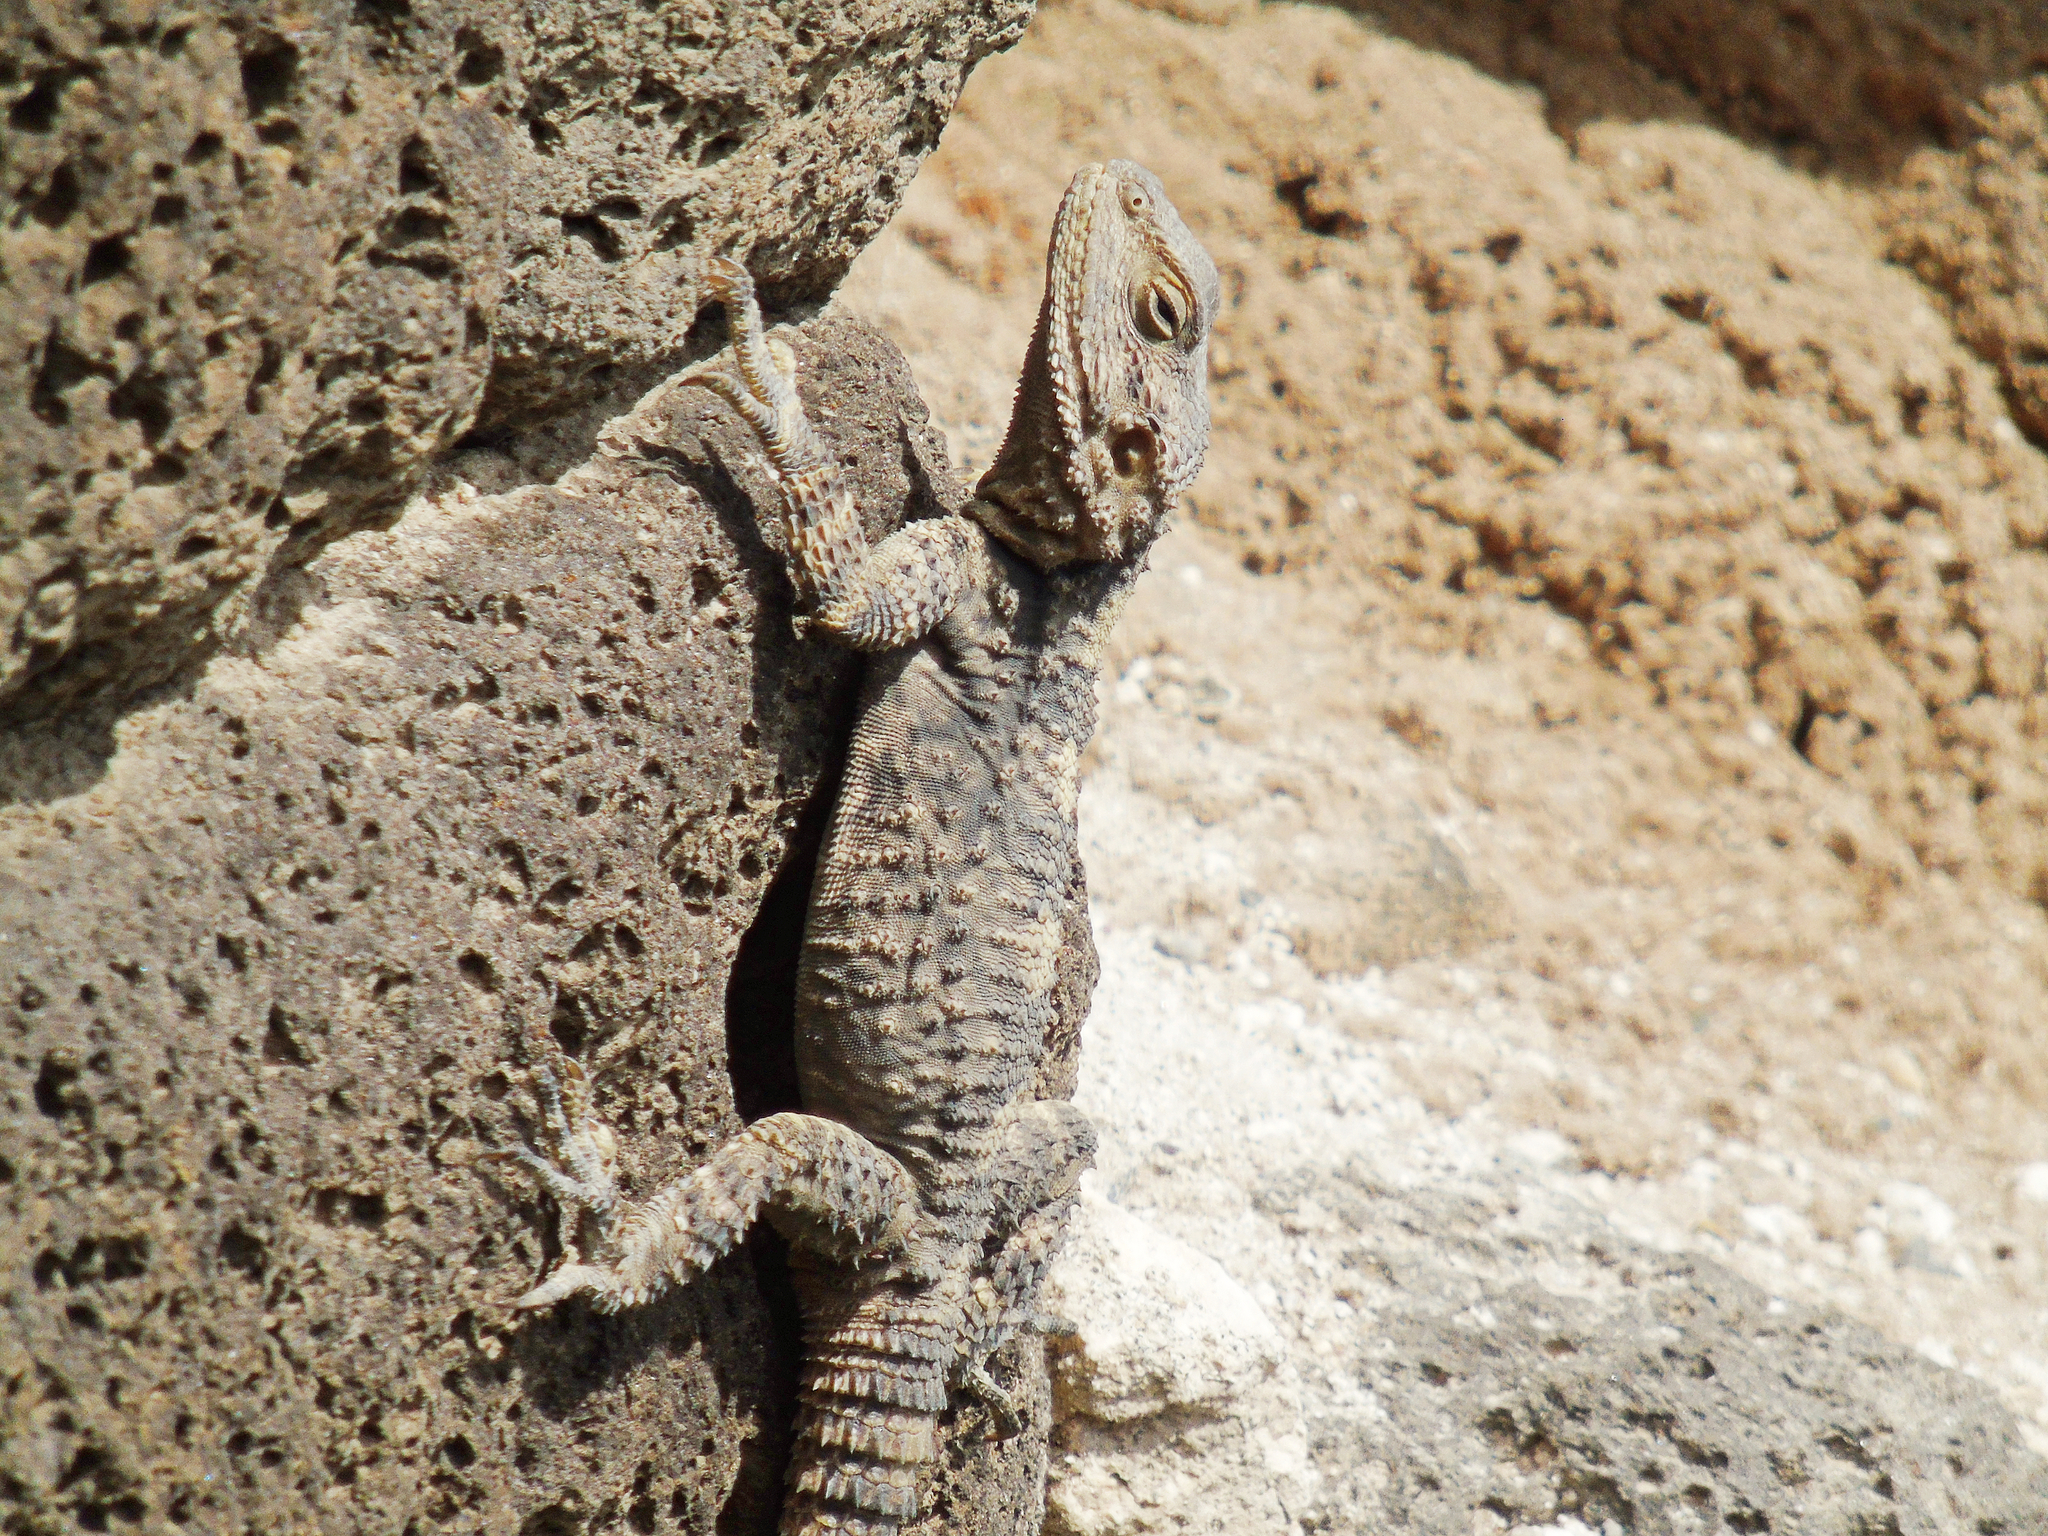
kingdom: Animalia
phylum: Chordata
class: Squamata
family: Agamidae
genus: Stellagama
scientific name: Stellagama stellio
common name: Starred agama
